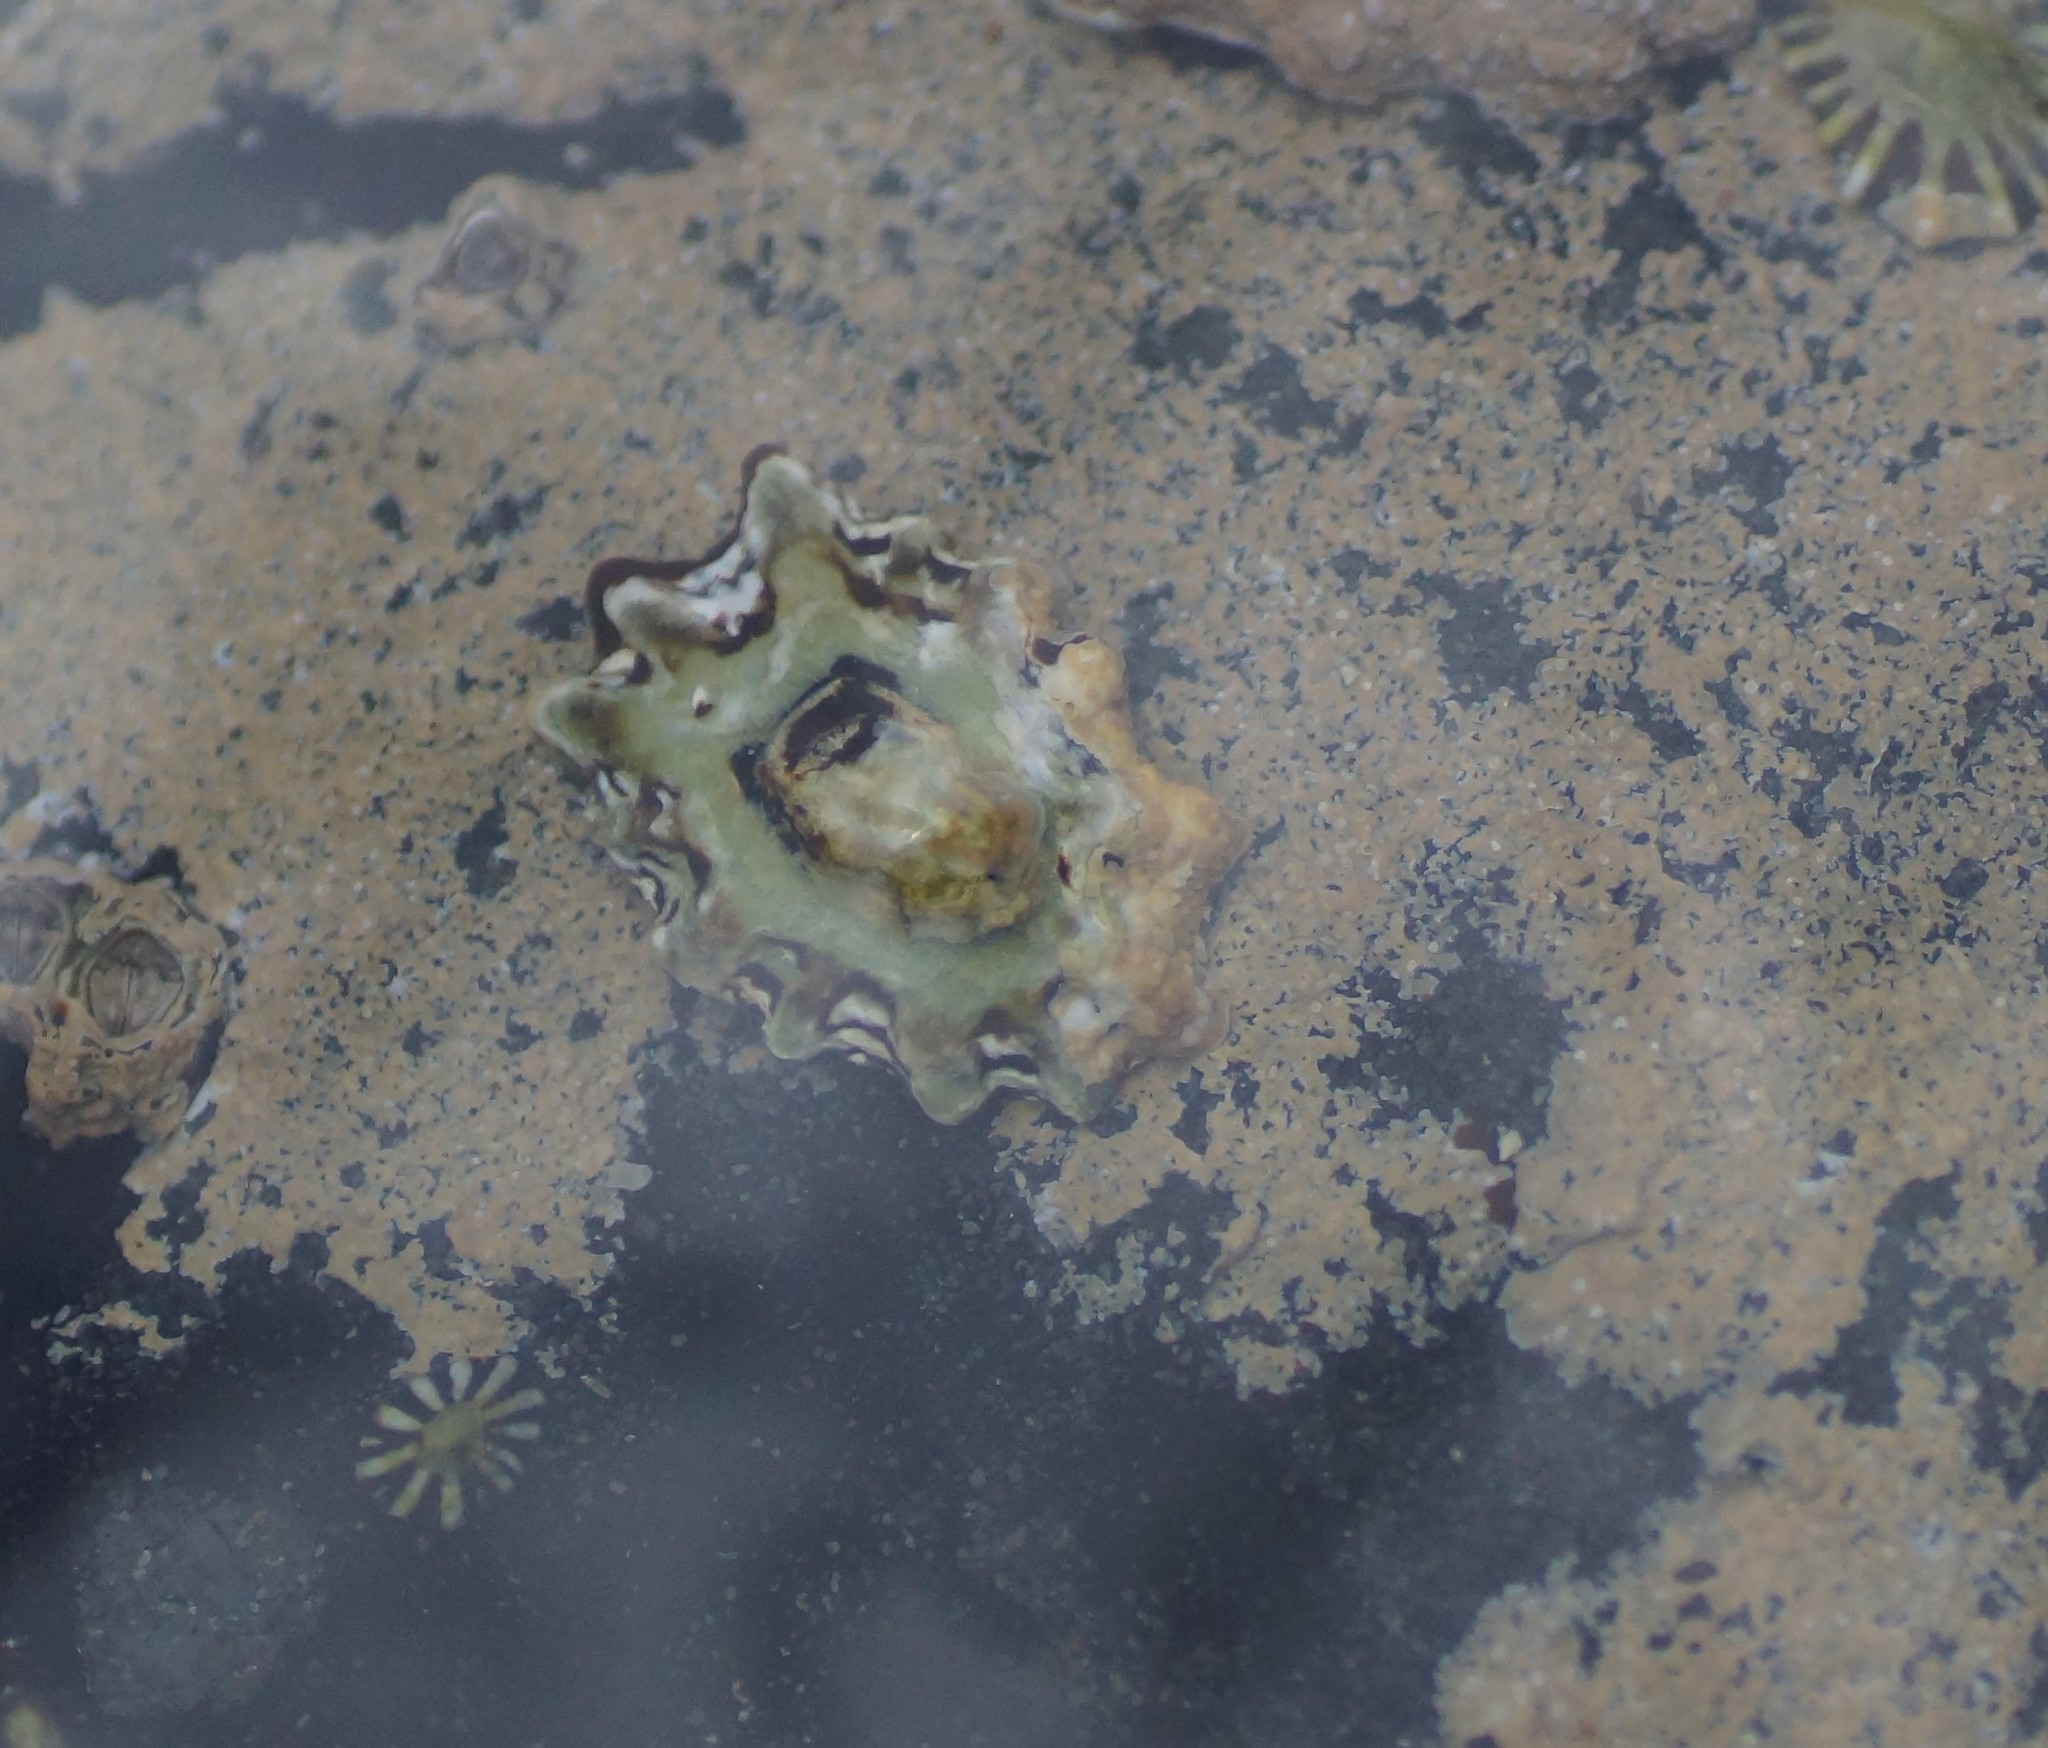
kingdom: Animalia
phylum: Mollusca
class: Gastropoda
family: Lottiidae
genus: Patelloida
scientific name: Patelloida alticostata
